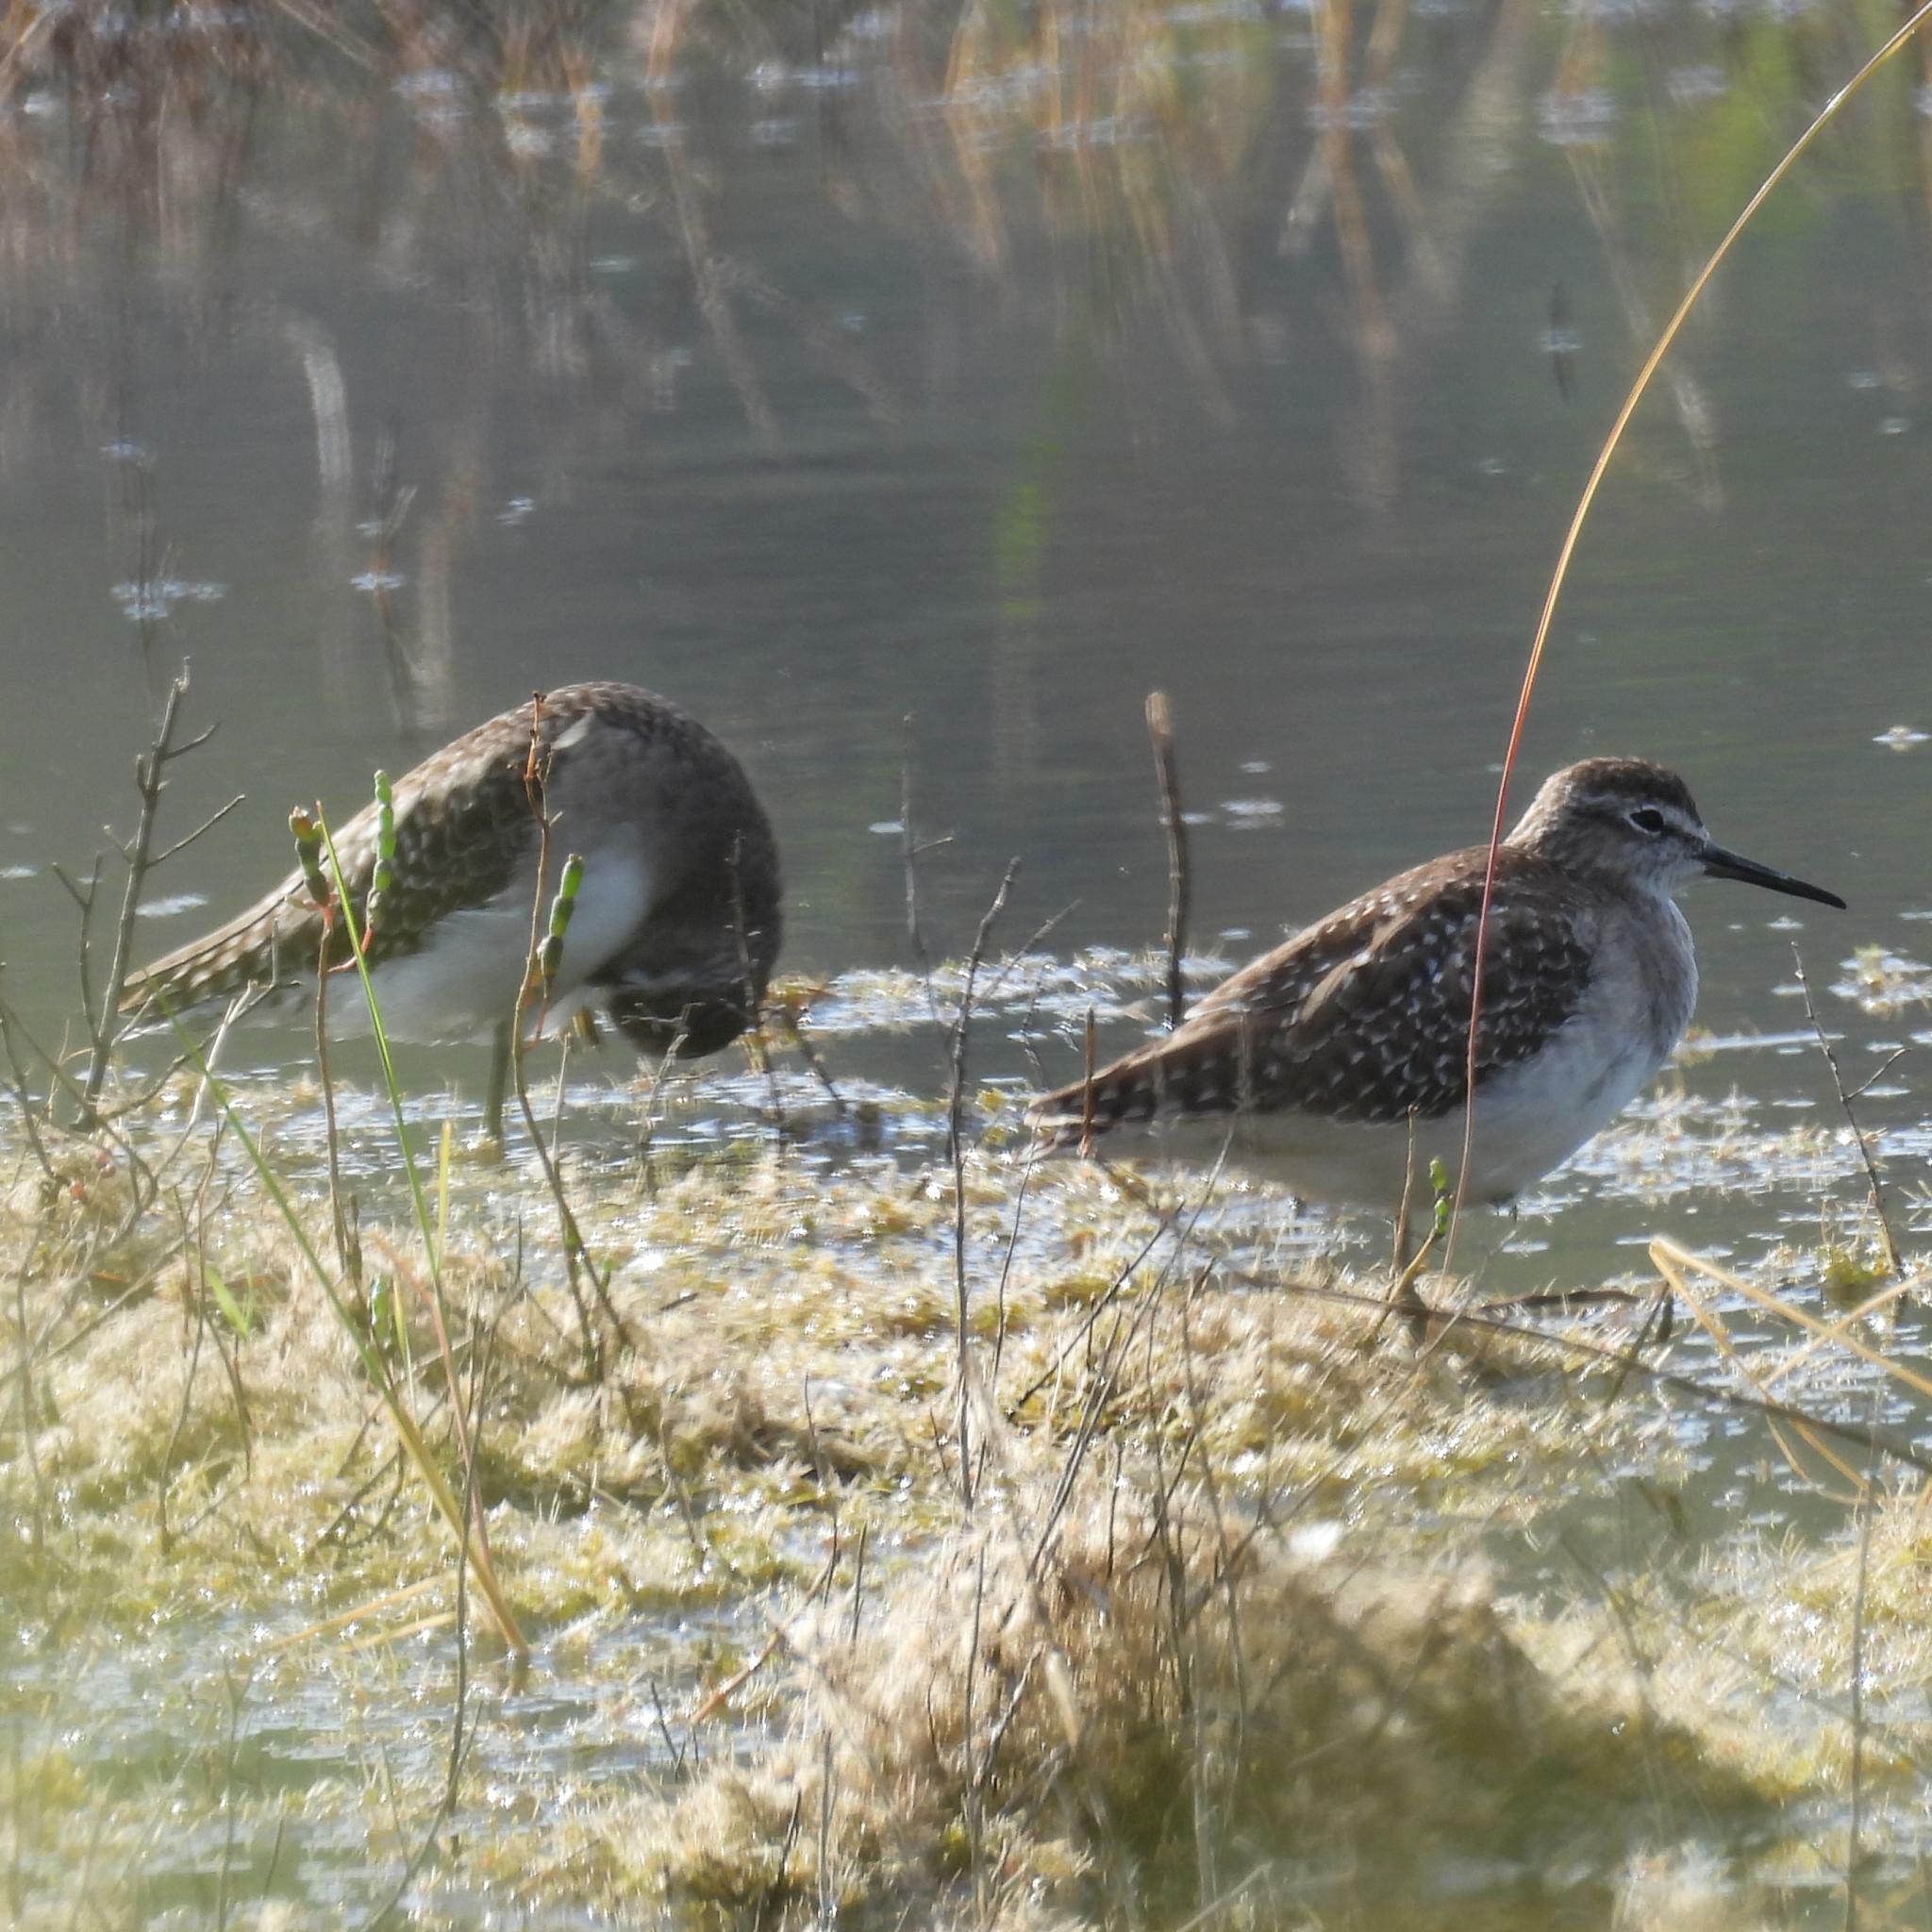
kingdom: Animalia
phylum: Chordata
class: Aves
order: Charadriiformes
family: Scolopacidae
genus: Tringa
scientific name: Tringa glareola
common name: Wood sandpiper
